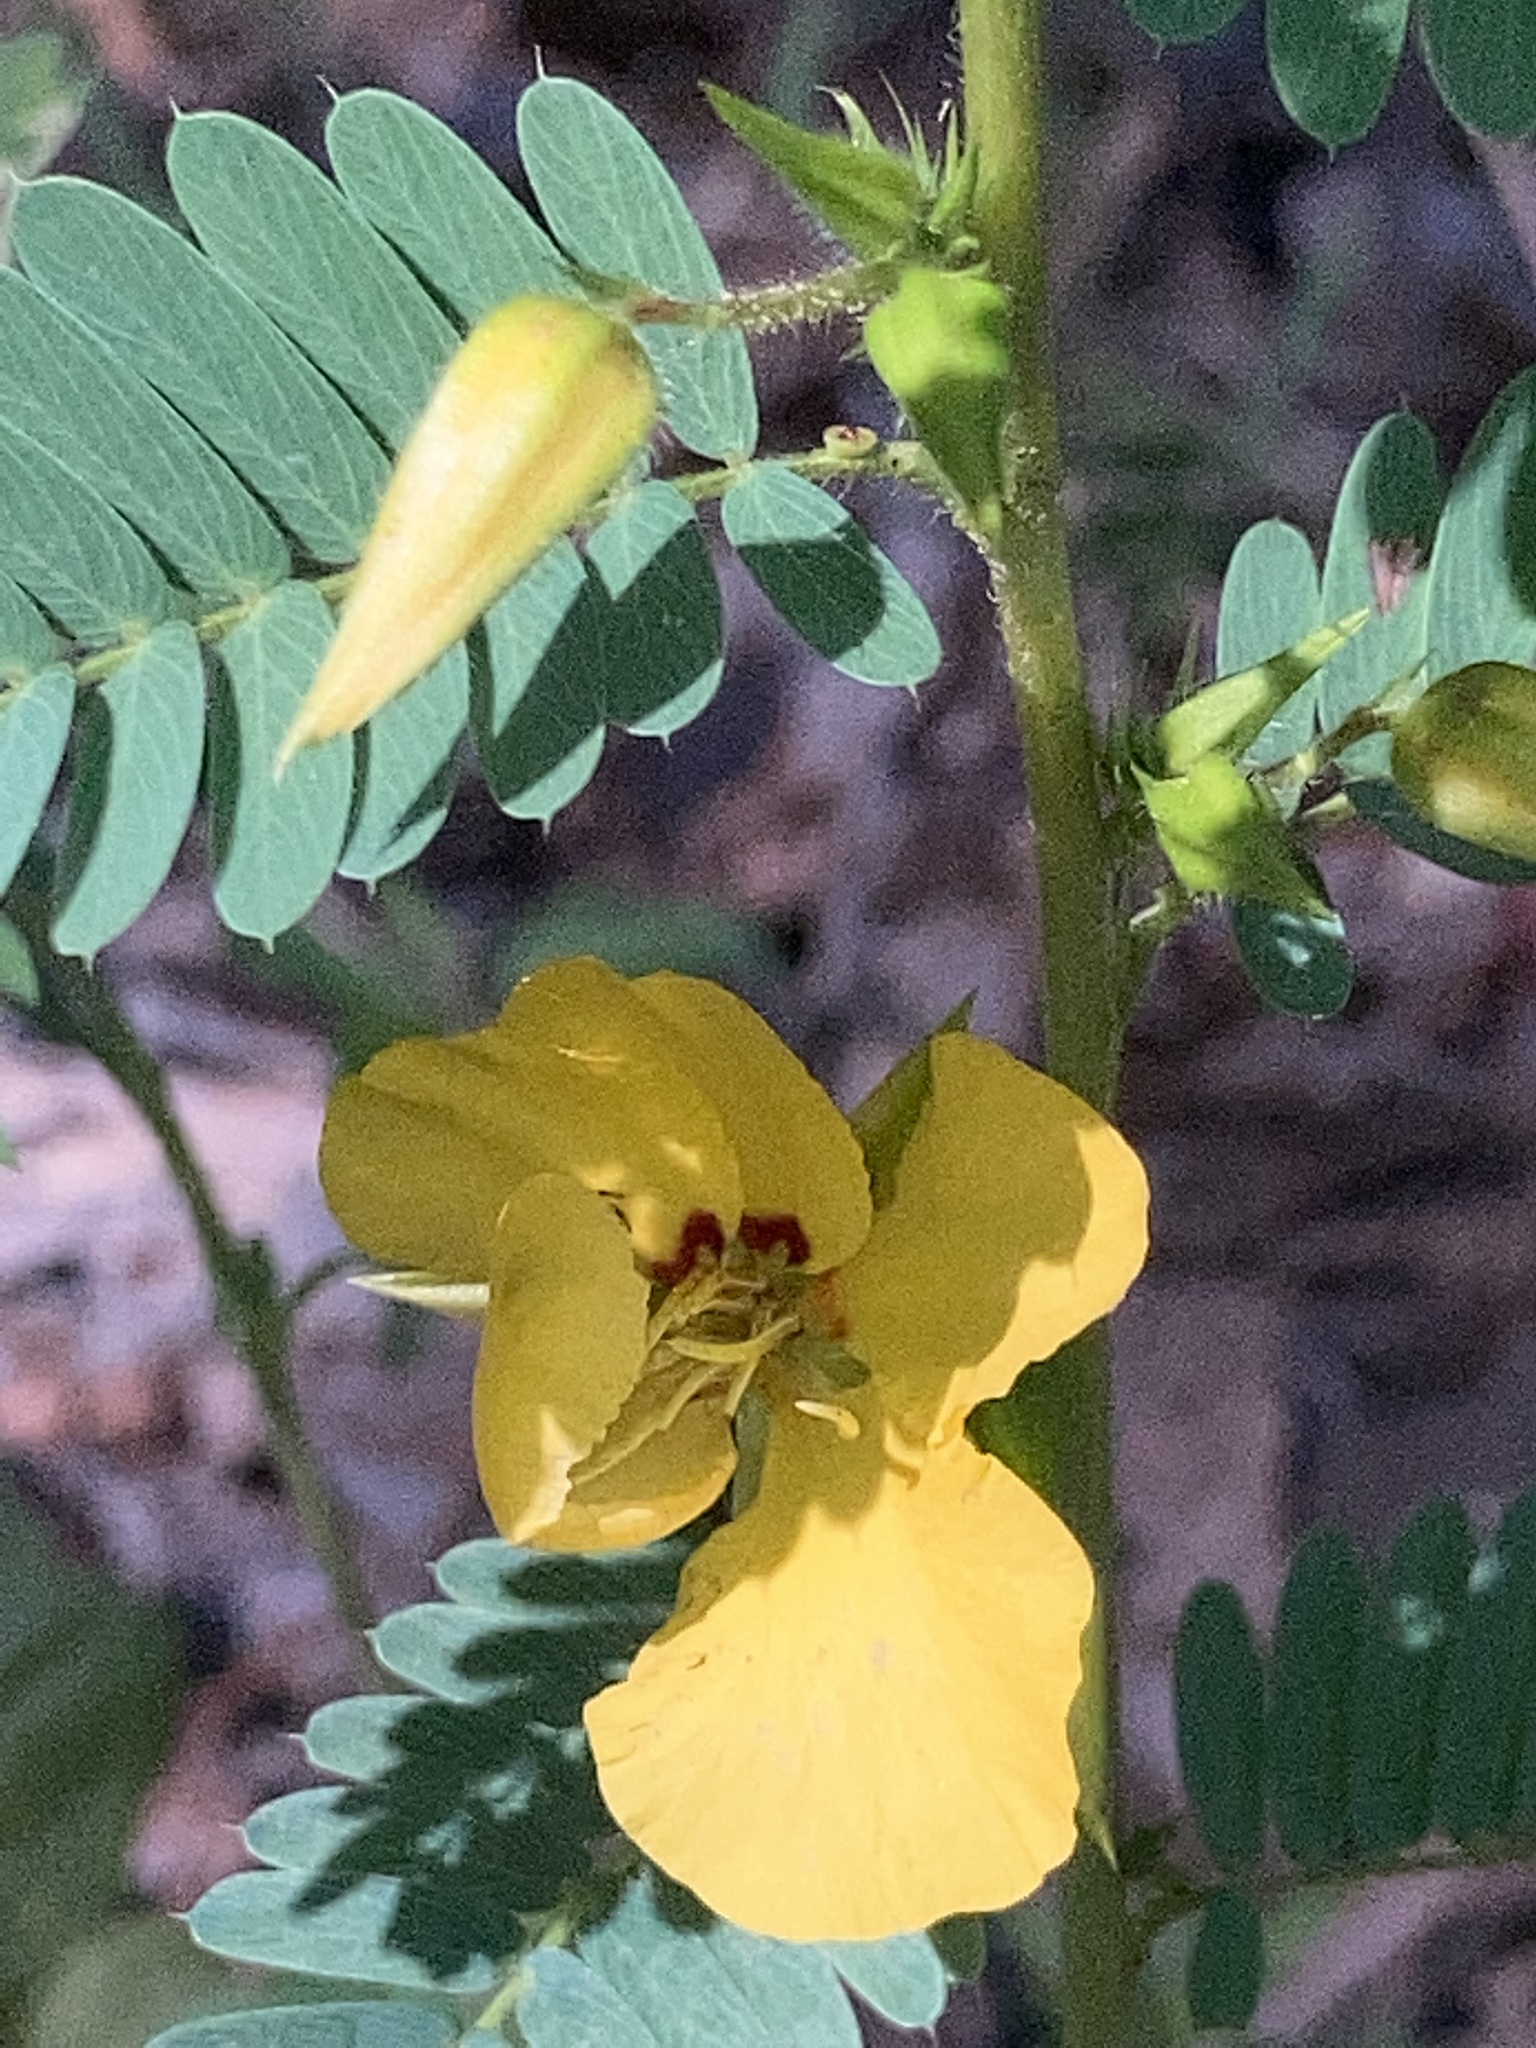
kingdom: Plantae
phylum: Tracheophyta
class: Magnoliopsida
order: Fabales
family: Fabaceae
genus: Chamaecrista
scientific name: Chamaecrista fasciculata
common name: Golden cassia
